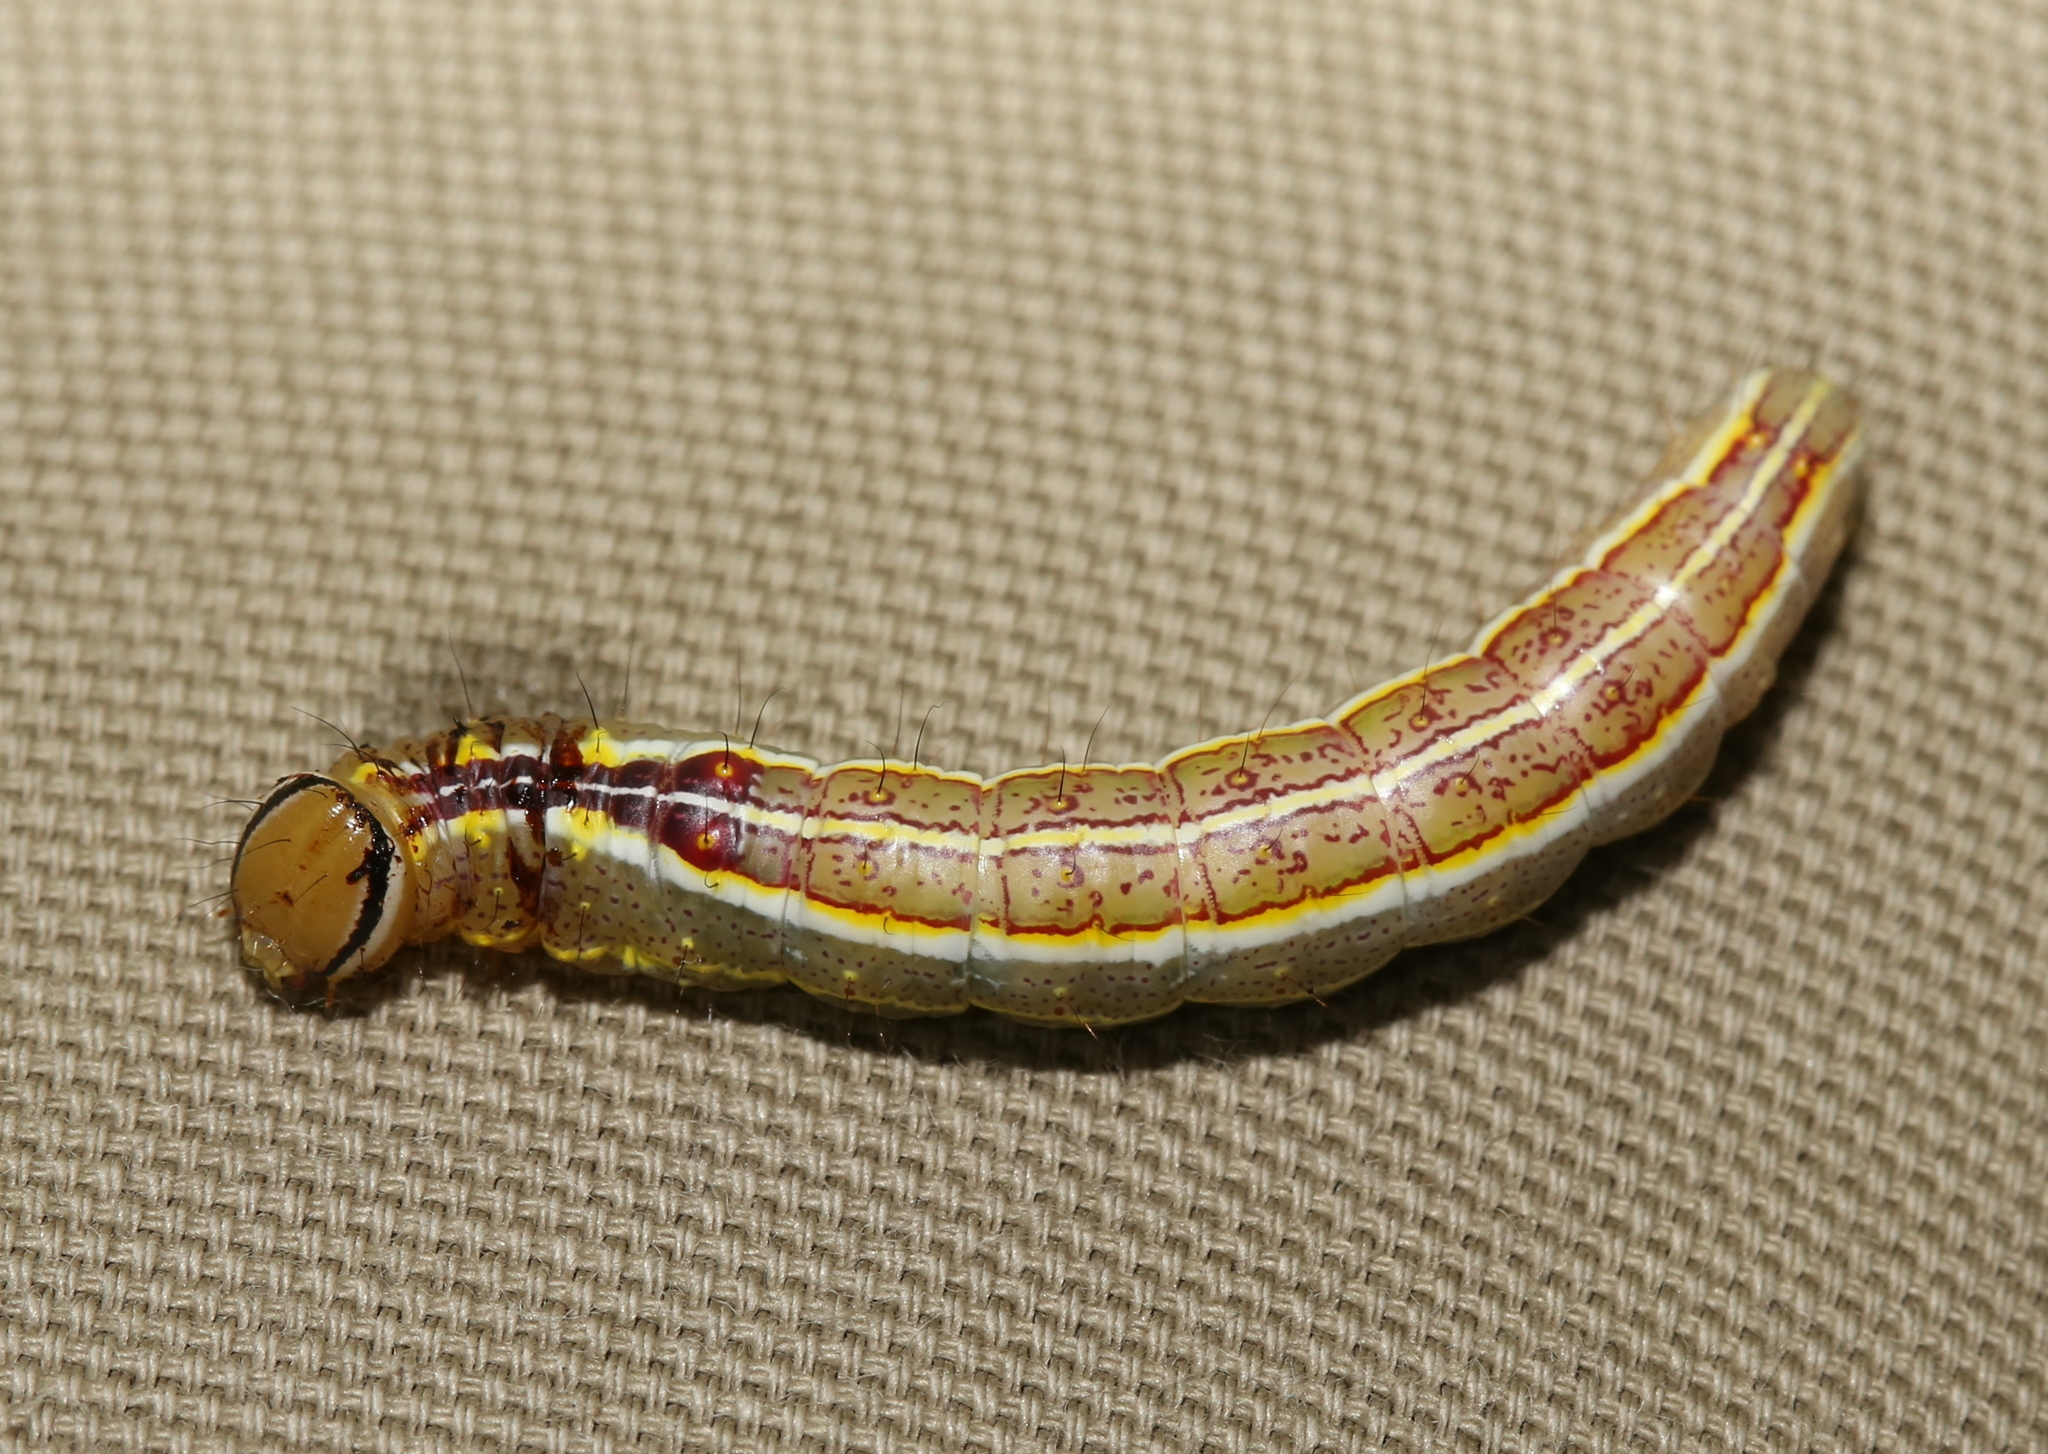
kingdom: Animalia
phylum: Arthropoda
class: Insecta
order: Lepidoptera
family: Notodontidae
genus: Lochmaeus
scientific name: Lochmaeus manteo
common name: Variable oakleaf caterpillar moth
